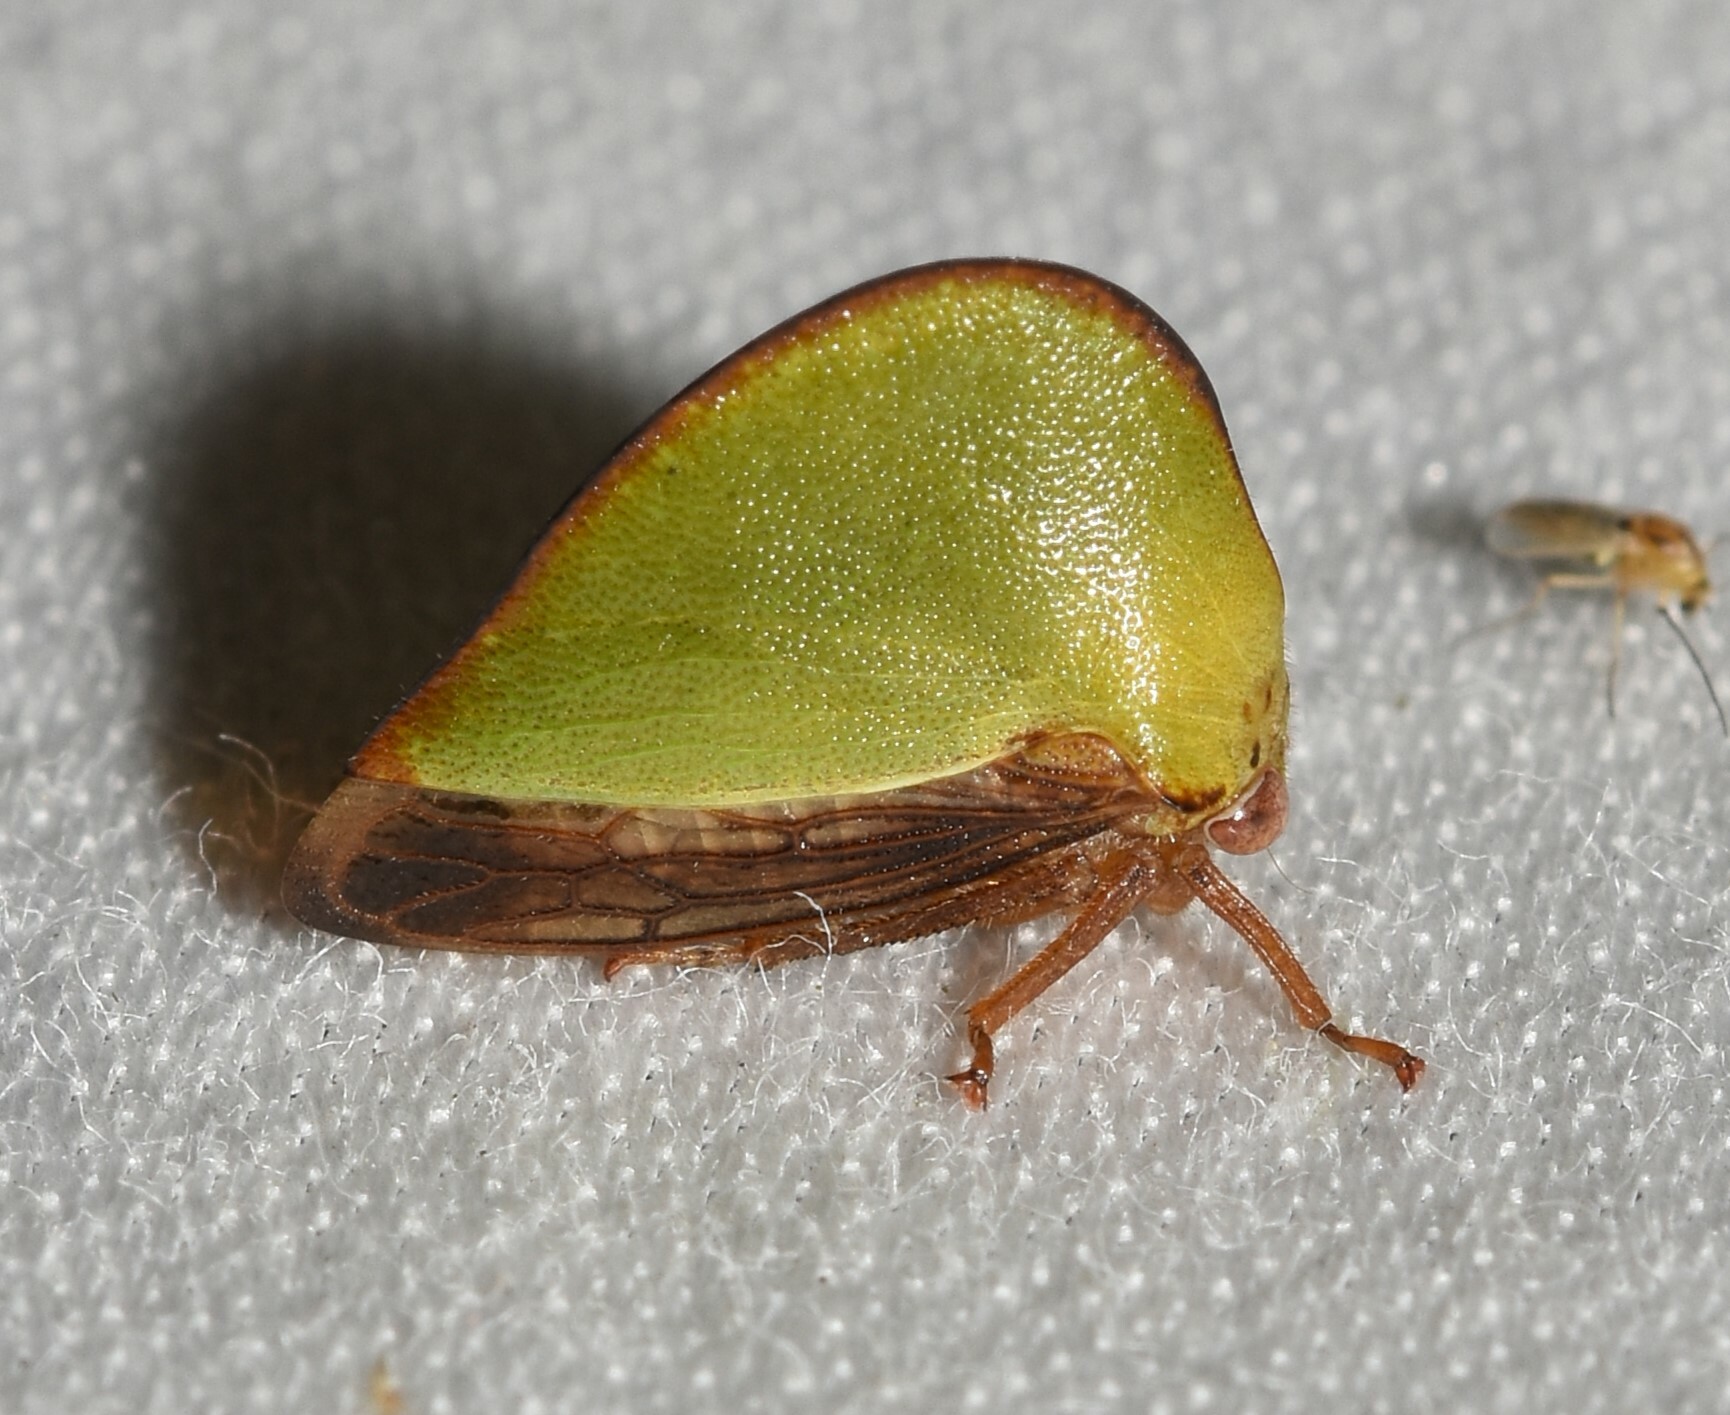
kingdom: Animalia
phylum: Arthropoda
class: Insecta
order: Hemiptera
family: Membracidae
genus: Archasia
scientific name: Archasia belfragei
